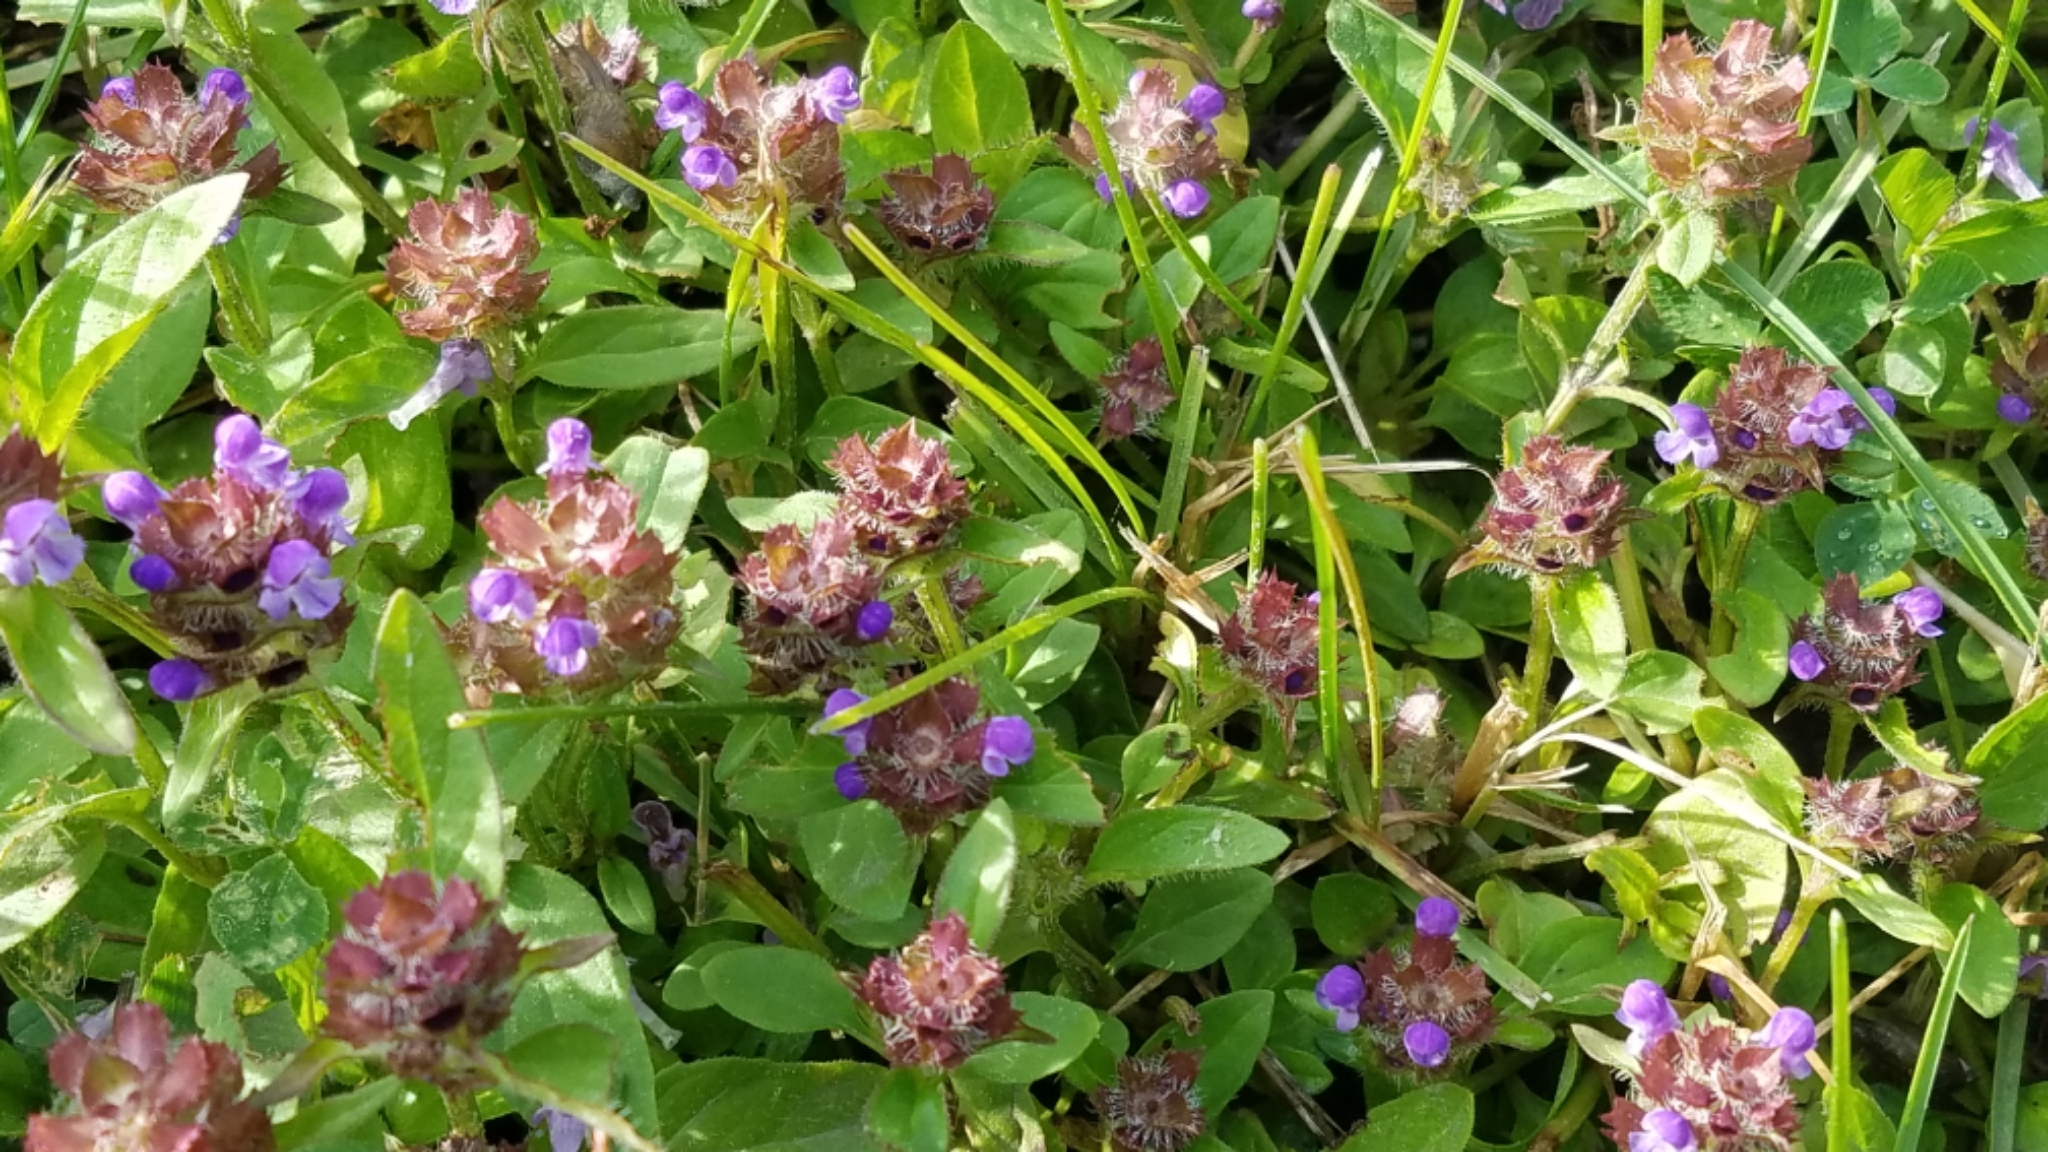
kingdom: Plantae
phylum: Tracheophyta
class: Magnoliopsida
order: Lamiales
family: Lamiaceae
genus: Prunella
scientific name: Prunella vulgaris
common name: Heal-all
